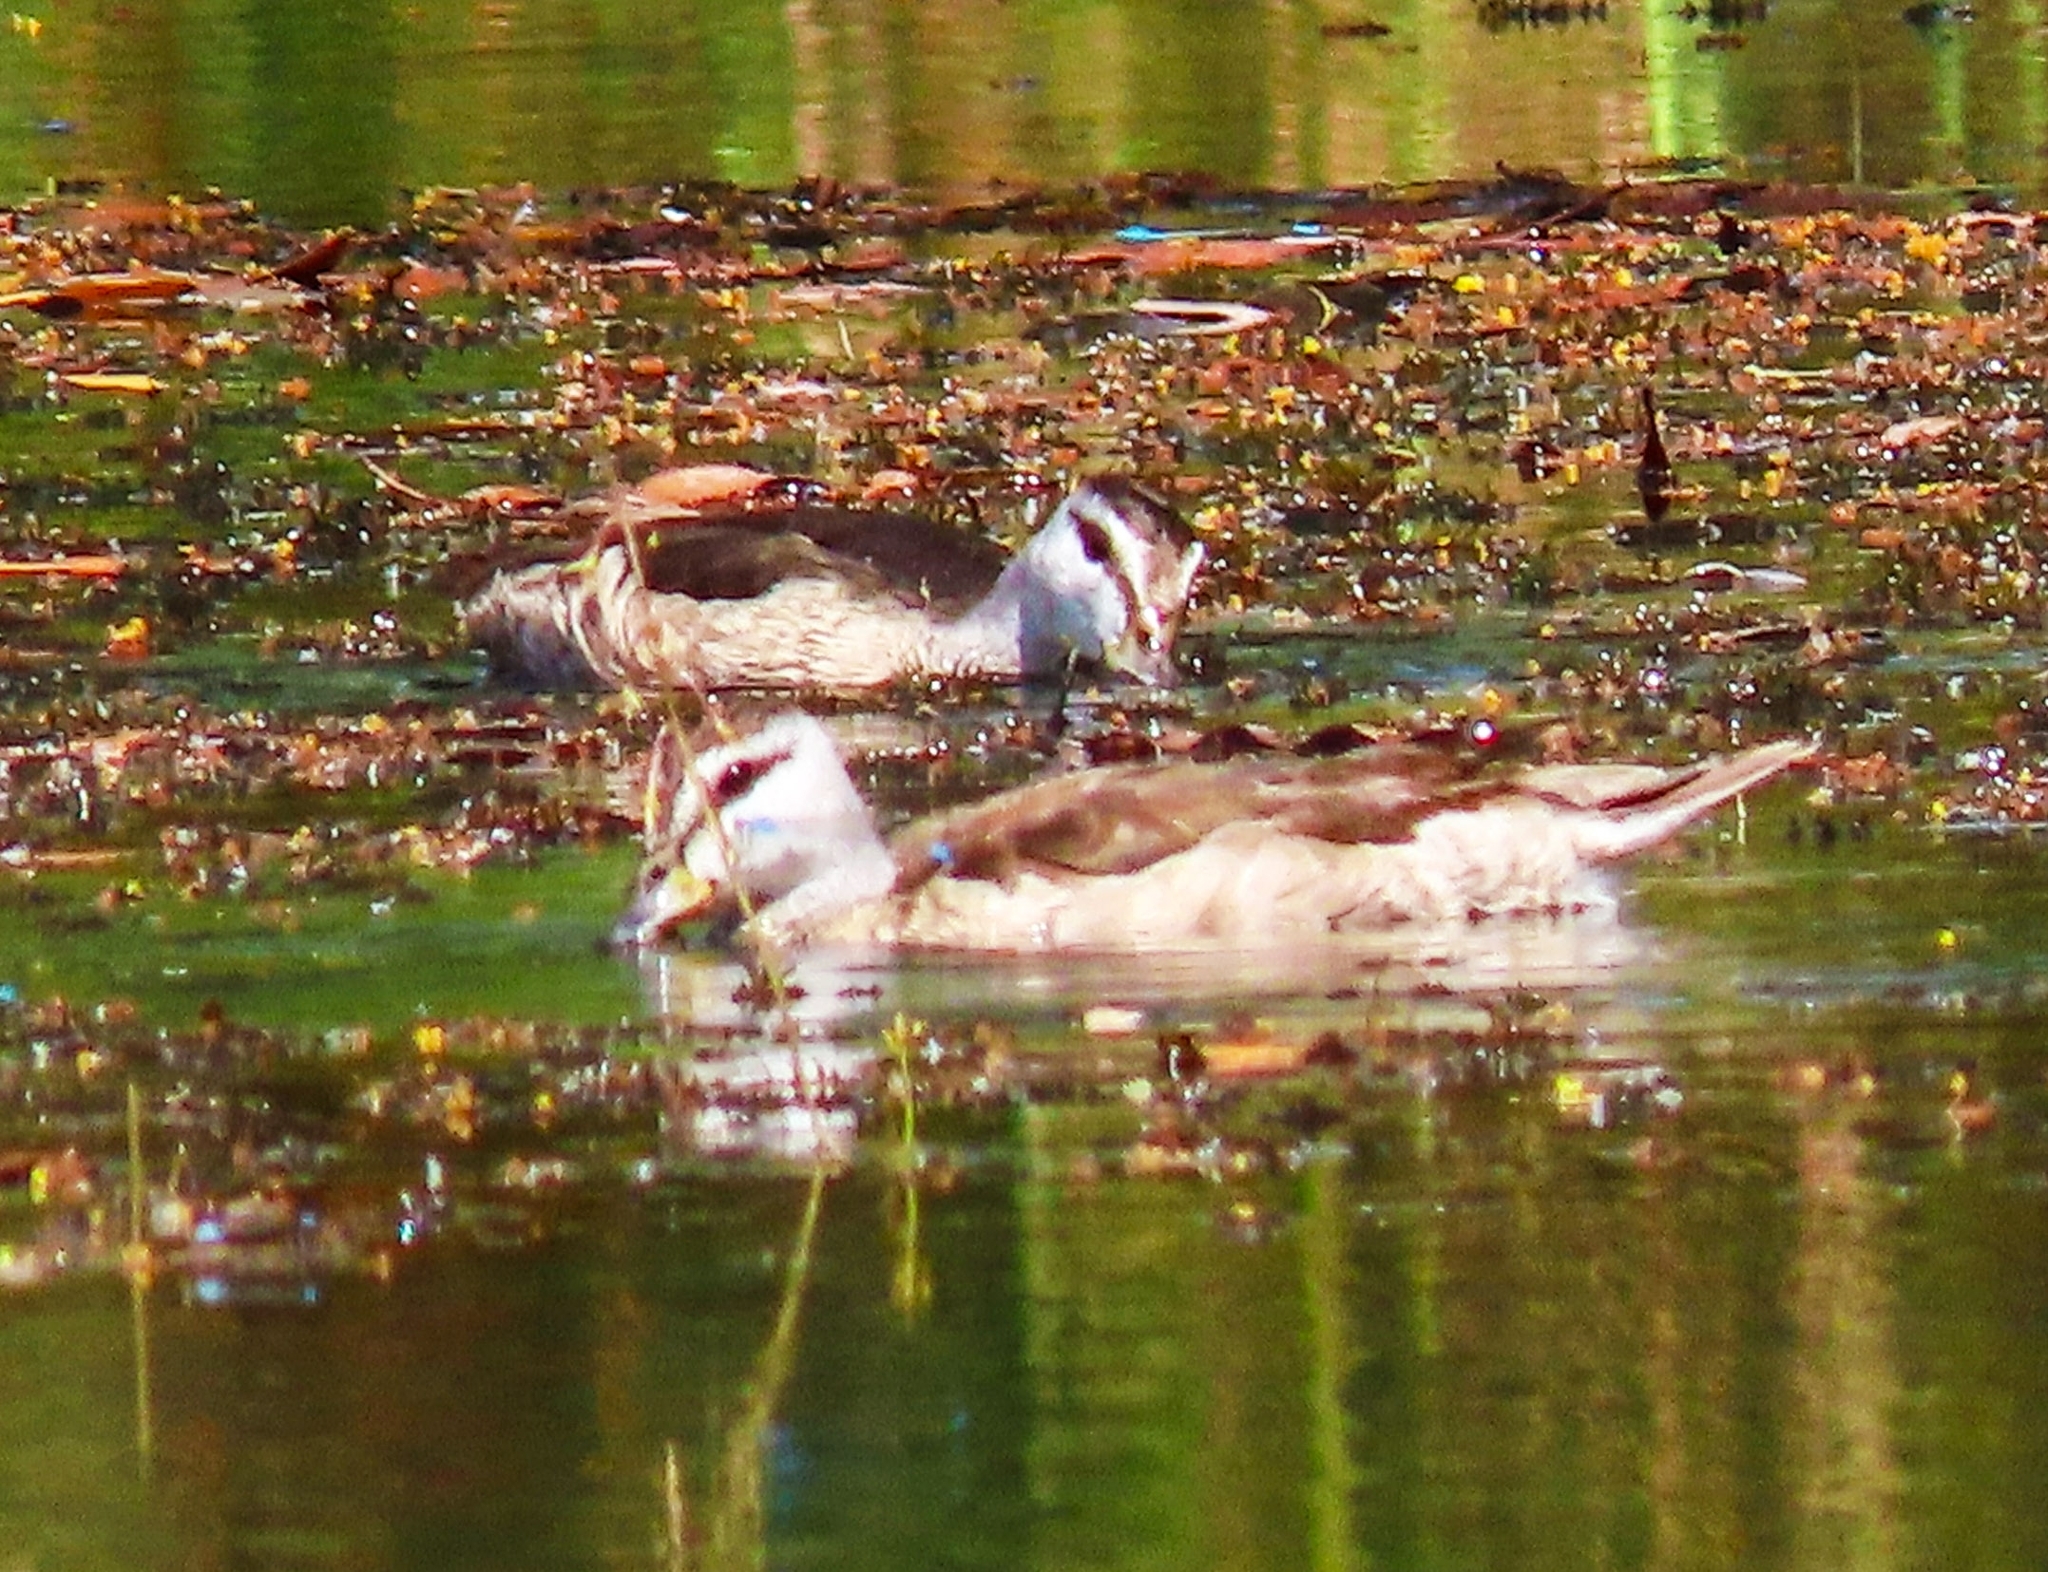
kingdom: Animalia
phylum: Chordata
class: Aves
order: Anseriformes
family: Anatidae
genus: Nettapus
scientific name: Nettapus coromandelianus
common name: Cotton pygmy-goose
